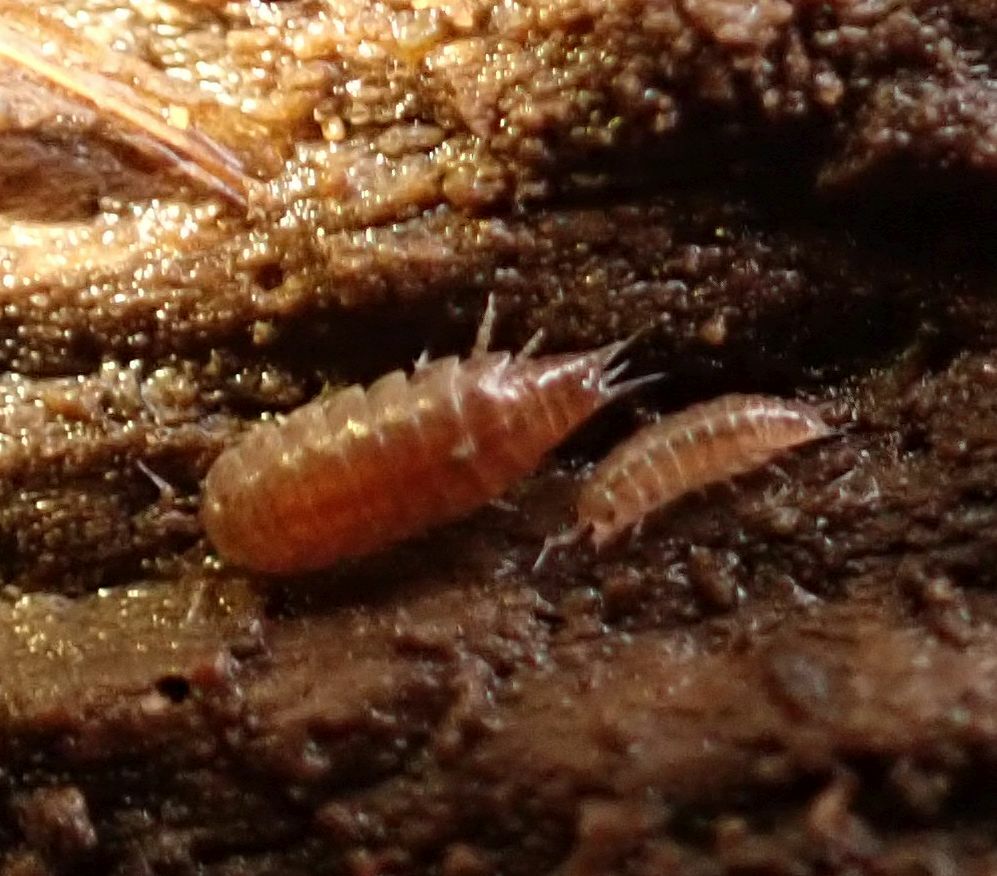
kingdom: Animalia
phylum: Arthropoda
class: Malacostraca
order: Isopoda
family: Trichoniscidae
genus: Trichoniscus
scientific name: Trichoniscus
